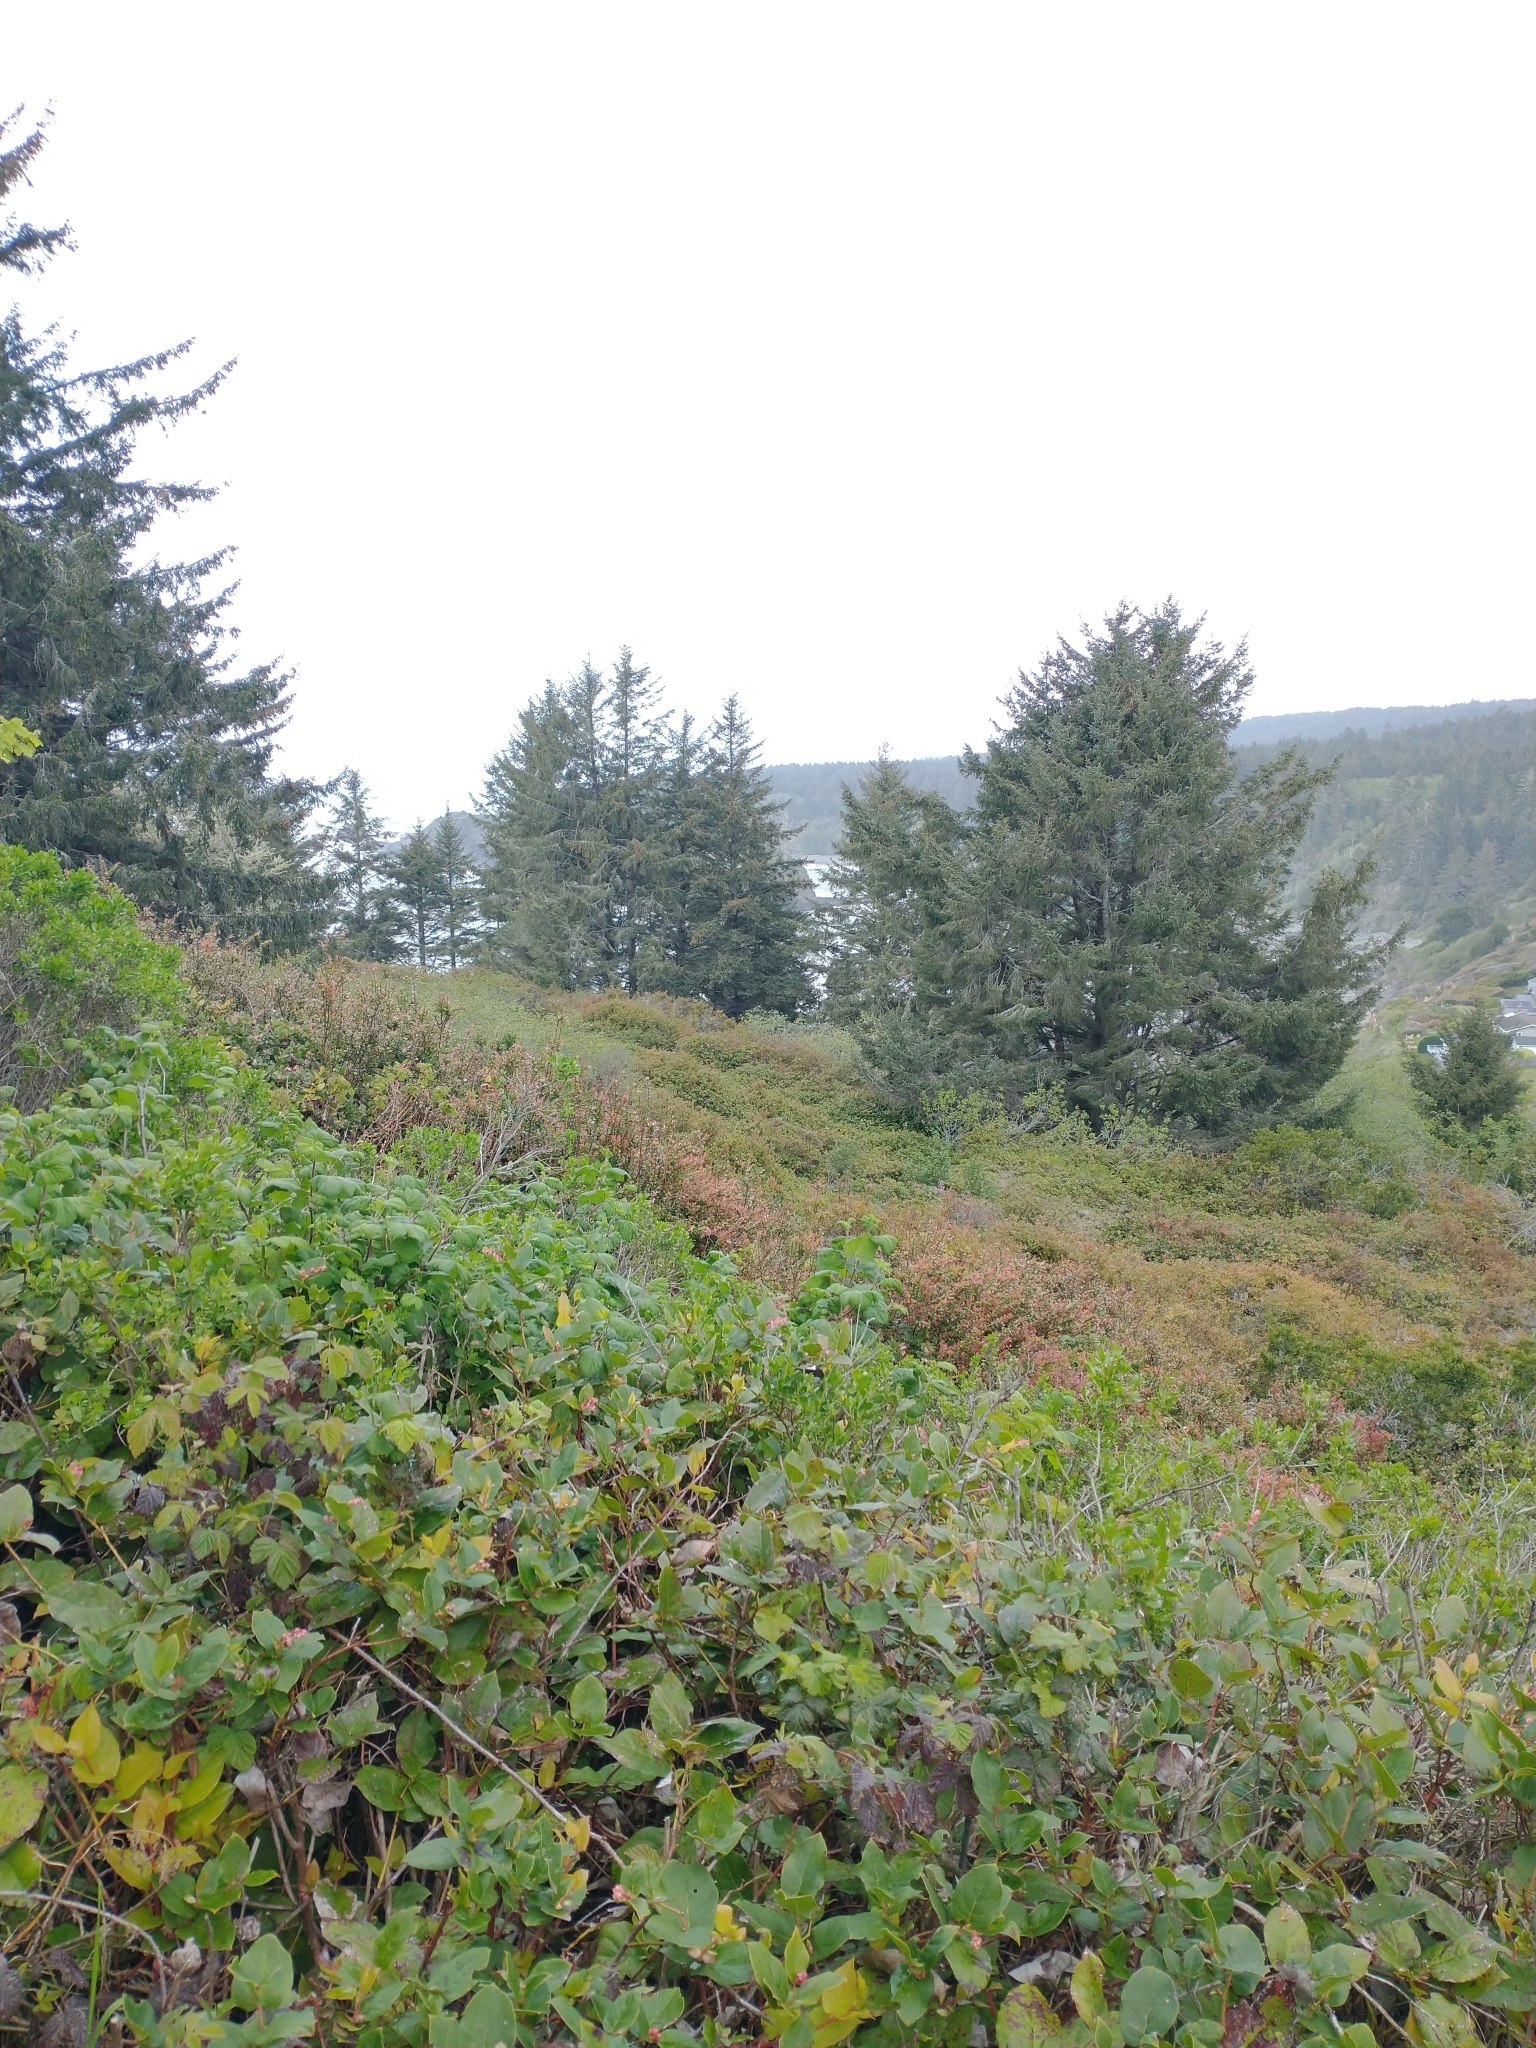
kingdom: Plantae
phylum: Tracheophyta
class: Pinopsida
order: Pinales
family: Pinaceae
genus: Picea
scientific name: Picea sitchensis
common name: Sitka spruce
